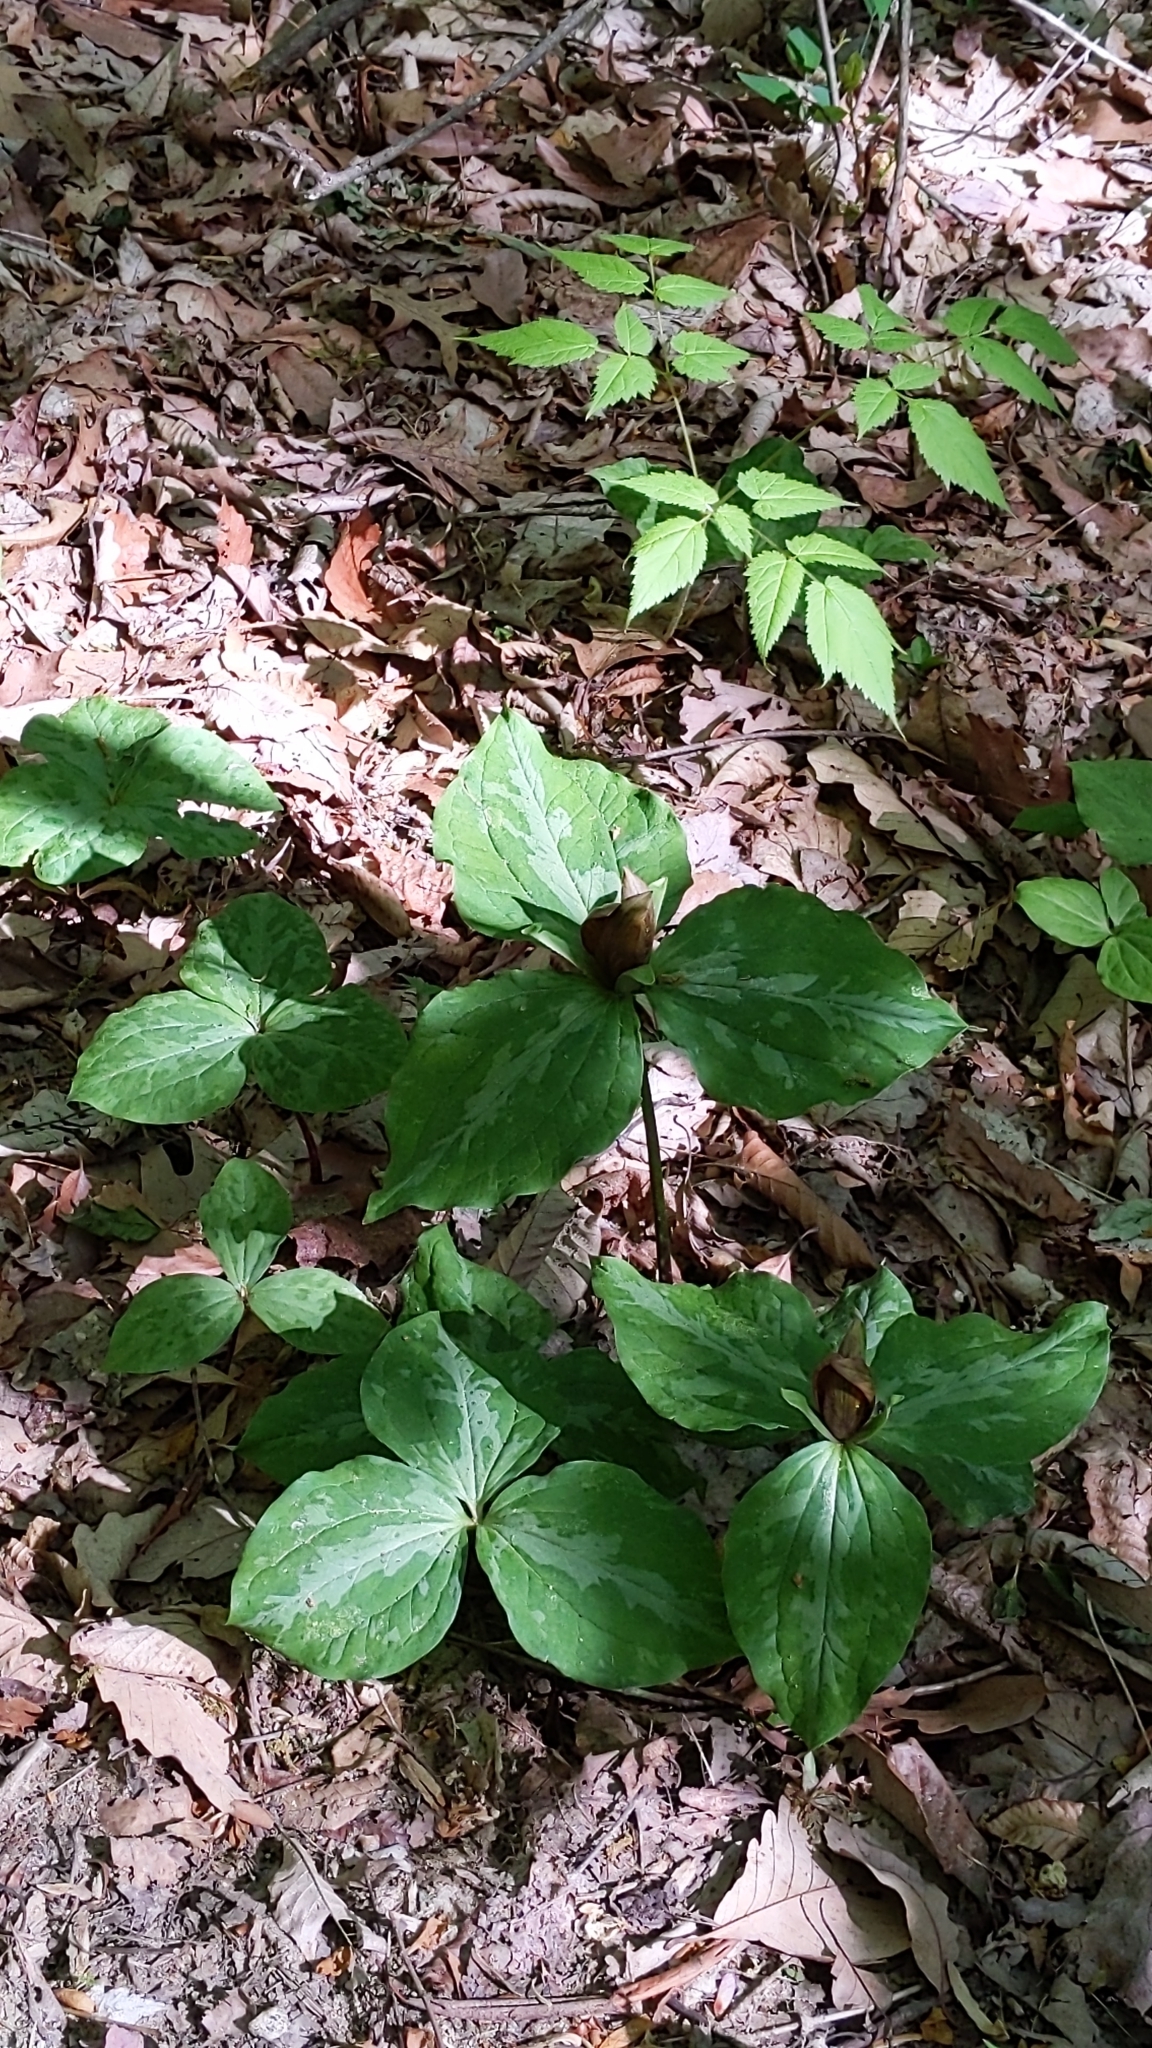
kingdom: Plantae
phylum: Tracheophyta
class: Liliopsida
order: Liliales
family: Melanthiaceae
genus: Trillium
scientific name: Trillium cuneatum
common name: Cuneate trillium
